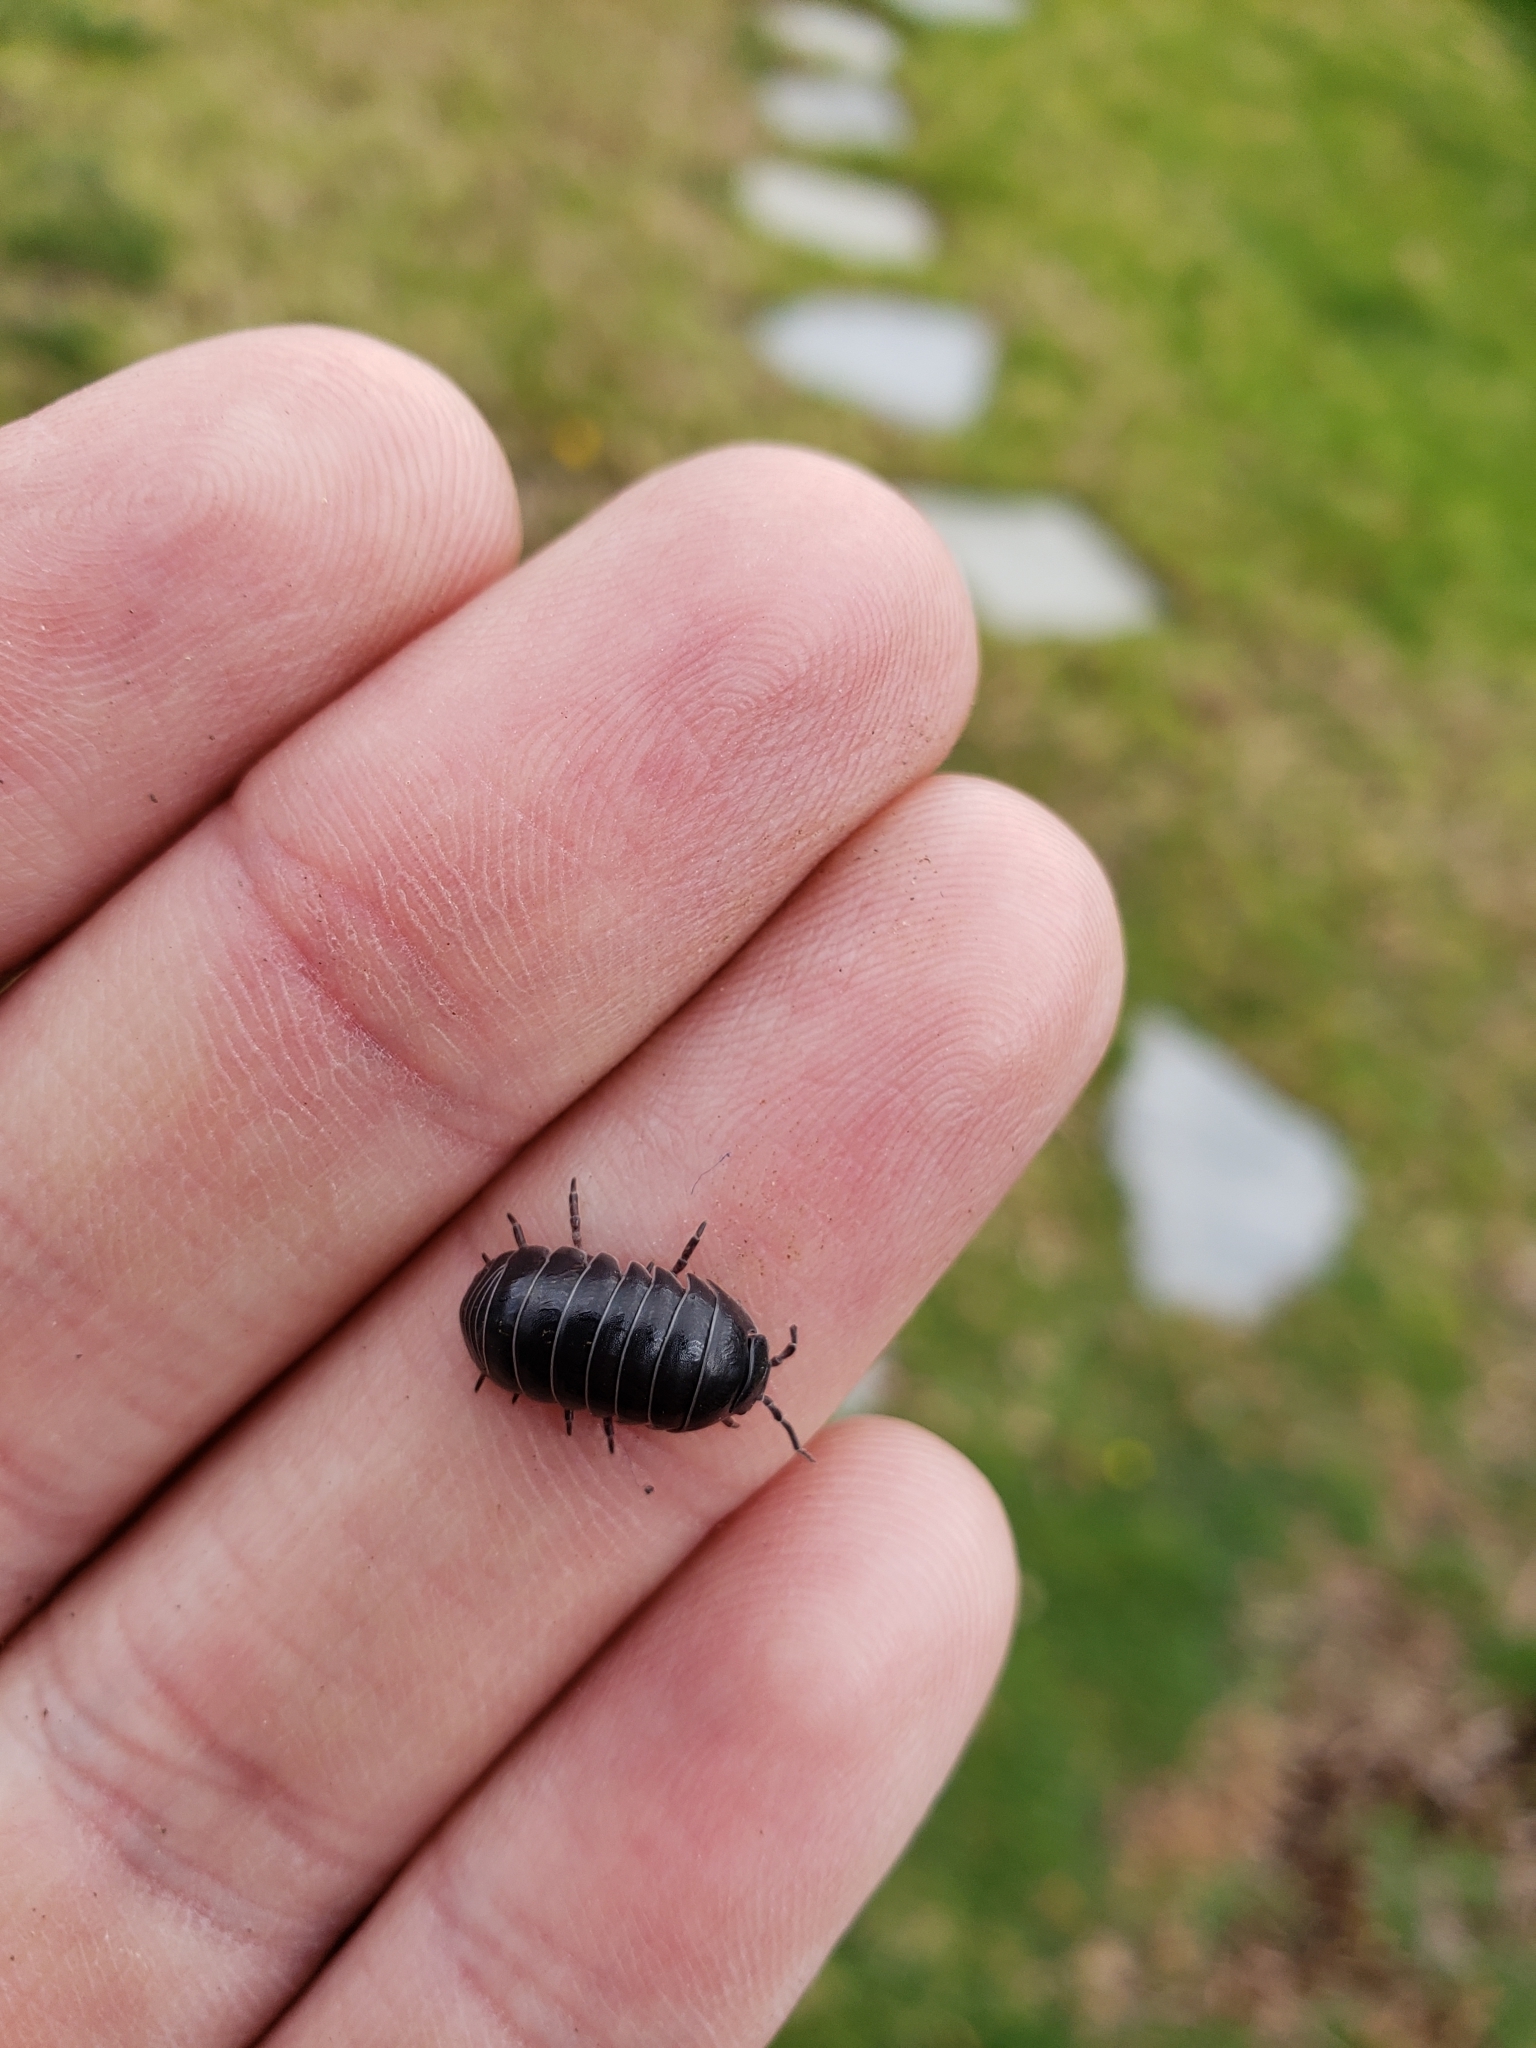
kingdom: Animalia
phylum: Arthropoda
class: Malacostraca
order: Isopoda
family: Armadillidiidae
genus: Armadillidium
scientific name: Armadillidium vulgare
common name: Common pill woodlouse
